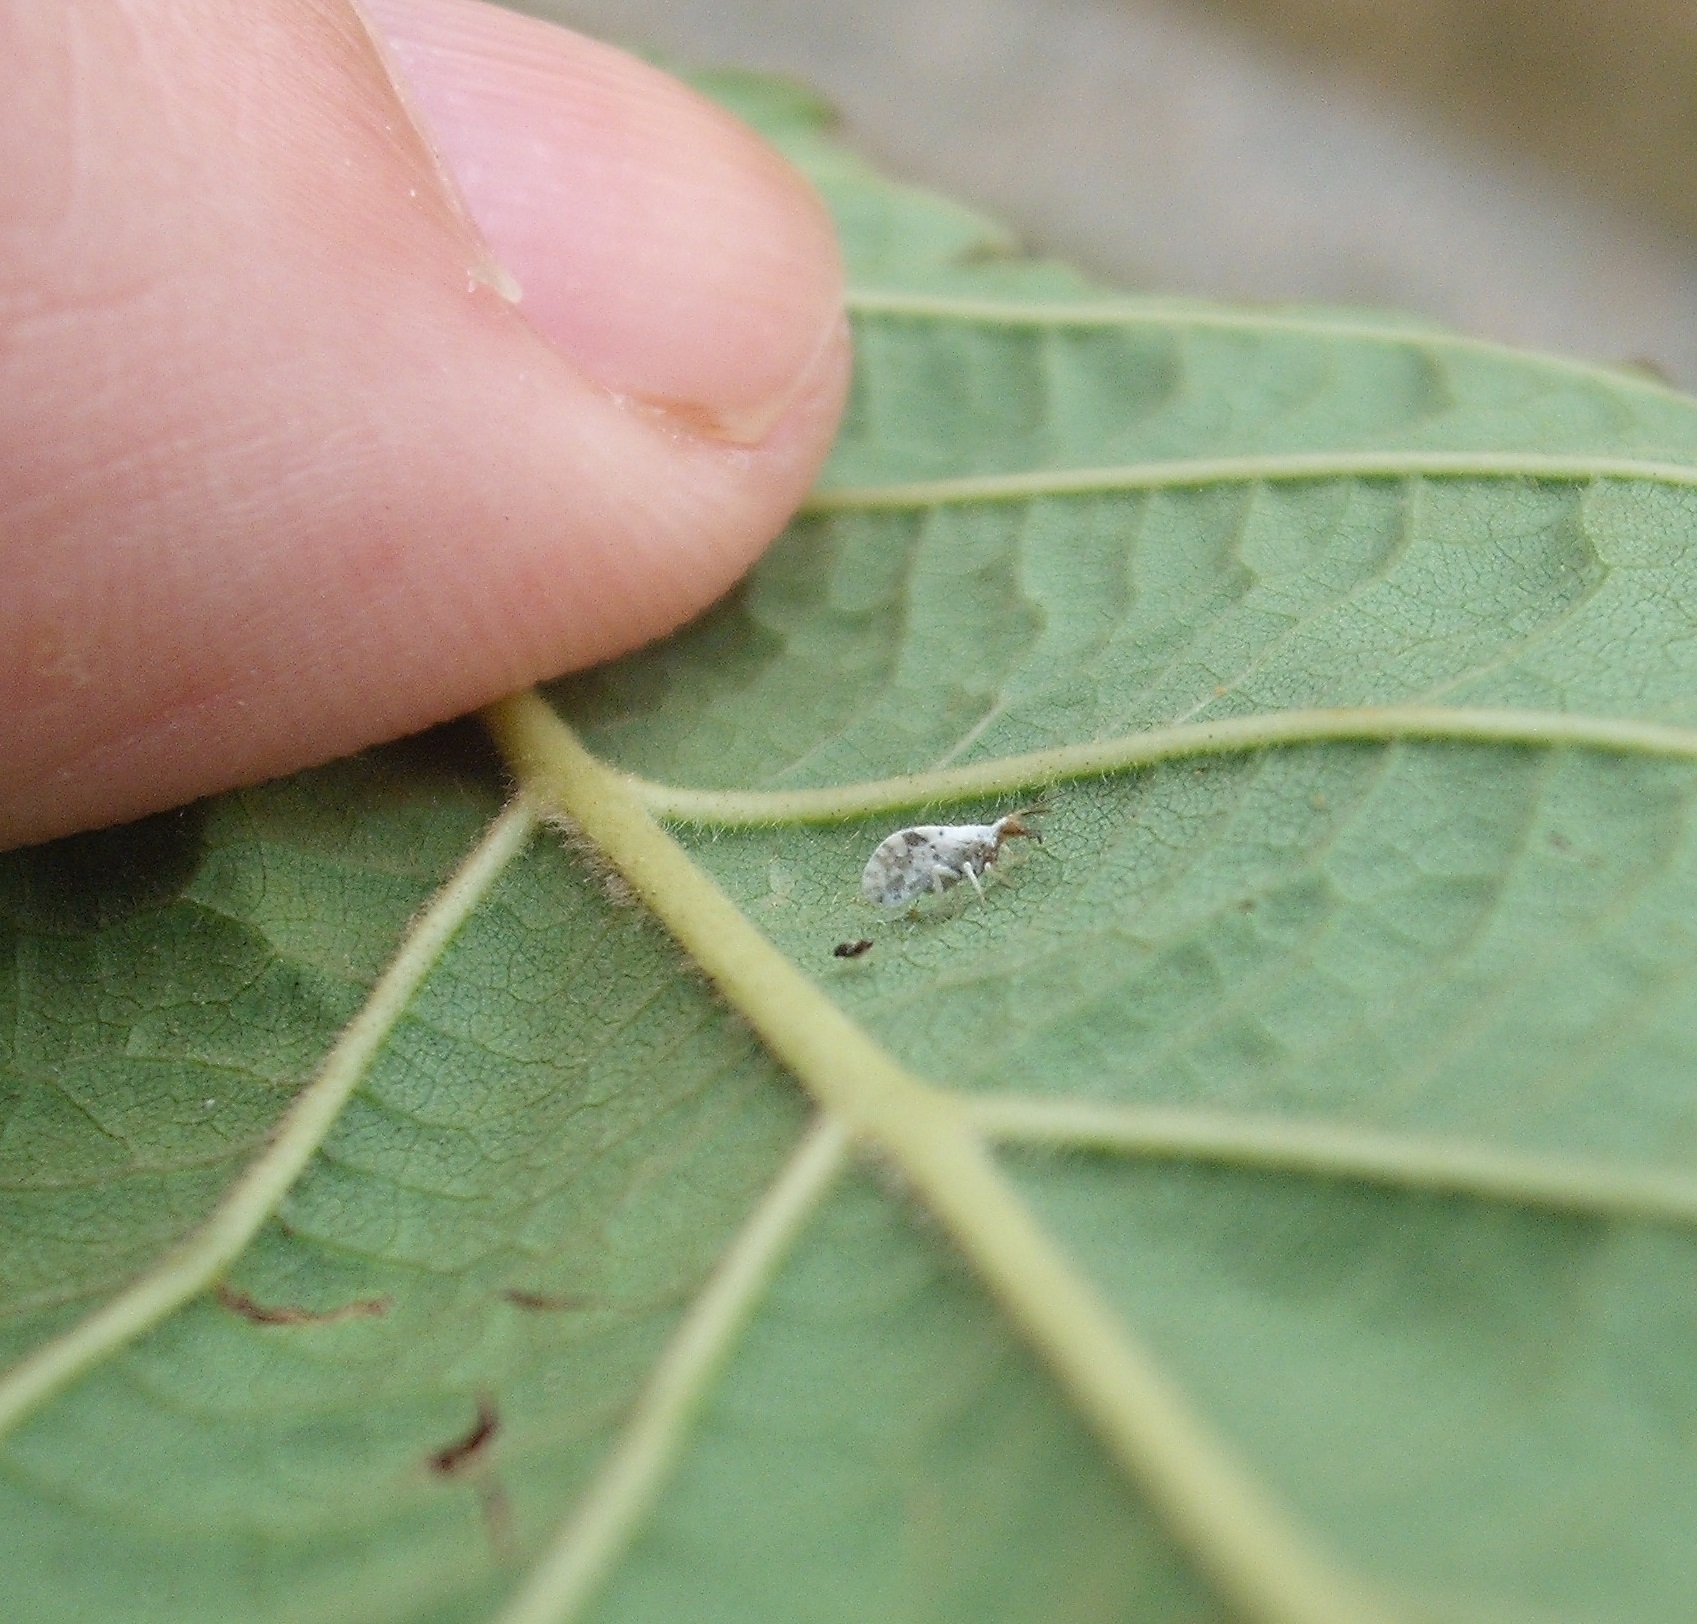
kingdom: Animalia
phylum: Arthropoda
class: Insecta
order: Neuroptera
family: Coniopterygidae
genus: Heteroconis
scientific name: Heteroconis ornata
